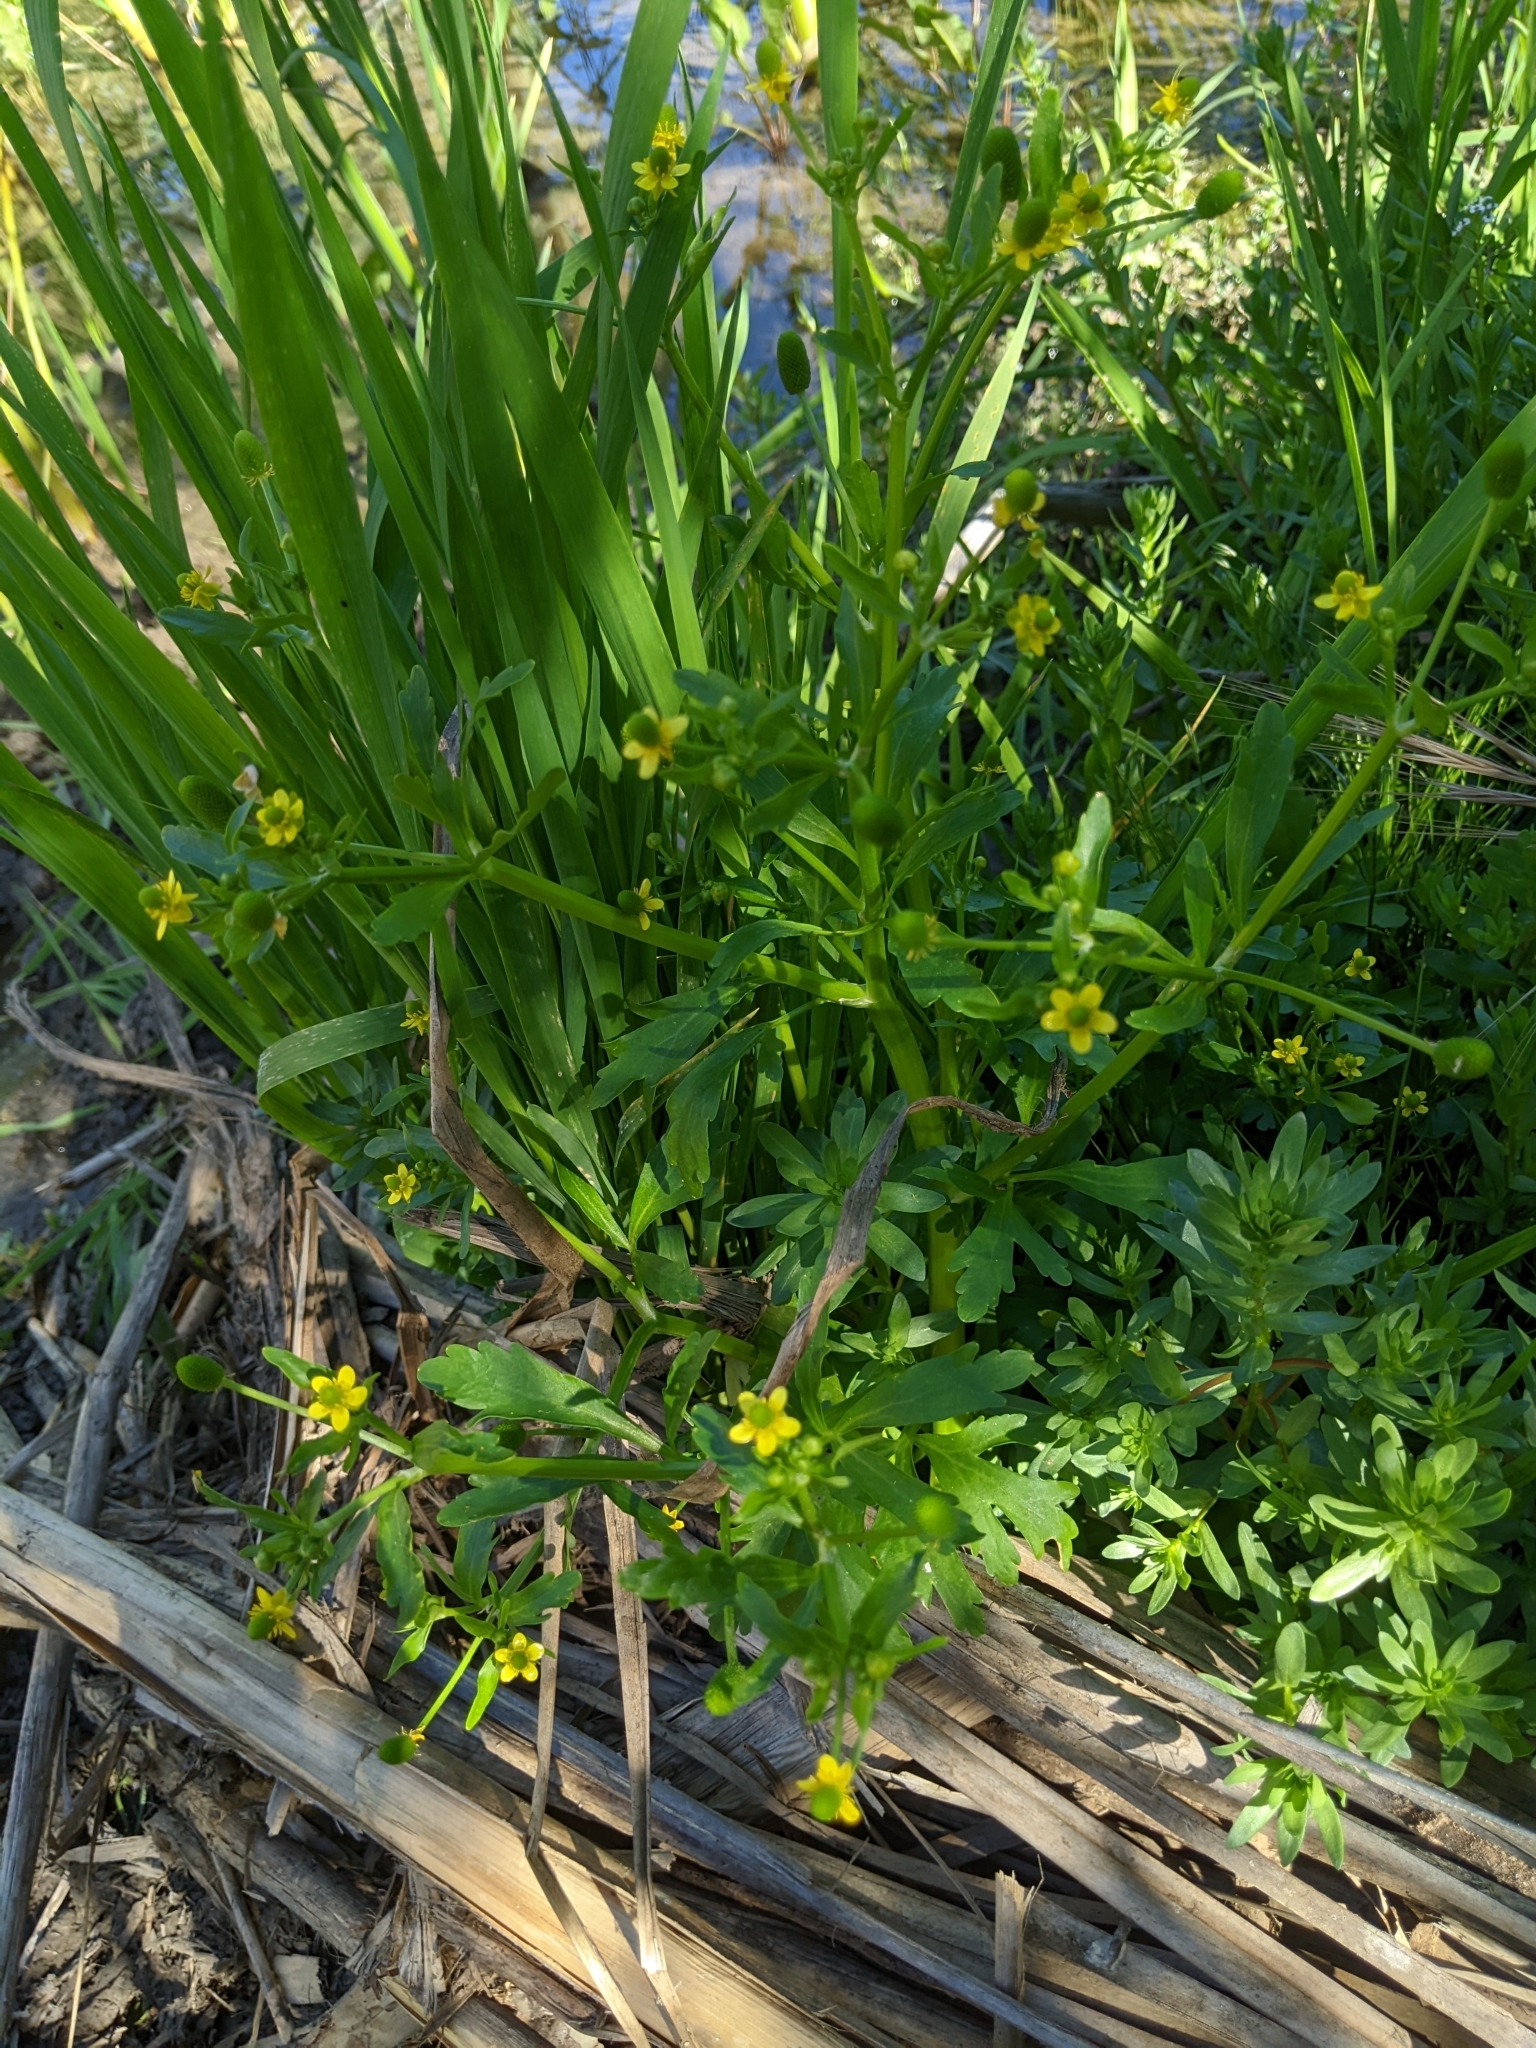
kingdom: Plantae
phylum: Tracheophyta
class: Magnoliopsida
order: Ranunculales
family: Ranunculaceae
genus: Ranunculus
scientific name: Ranunculus sceleratus
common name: Celery-leaved buttercup
